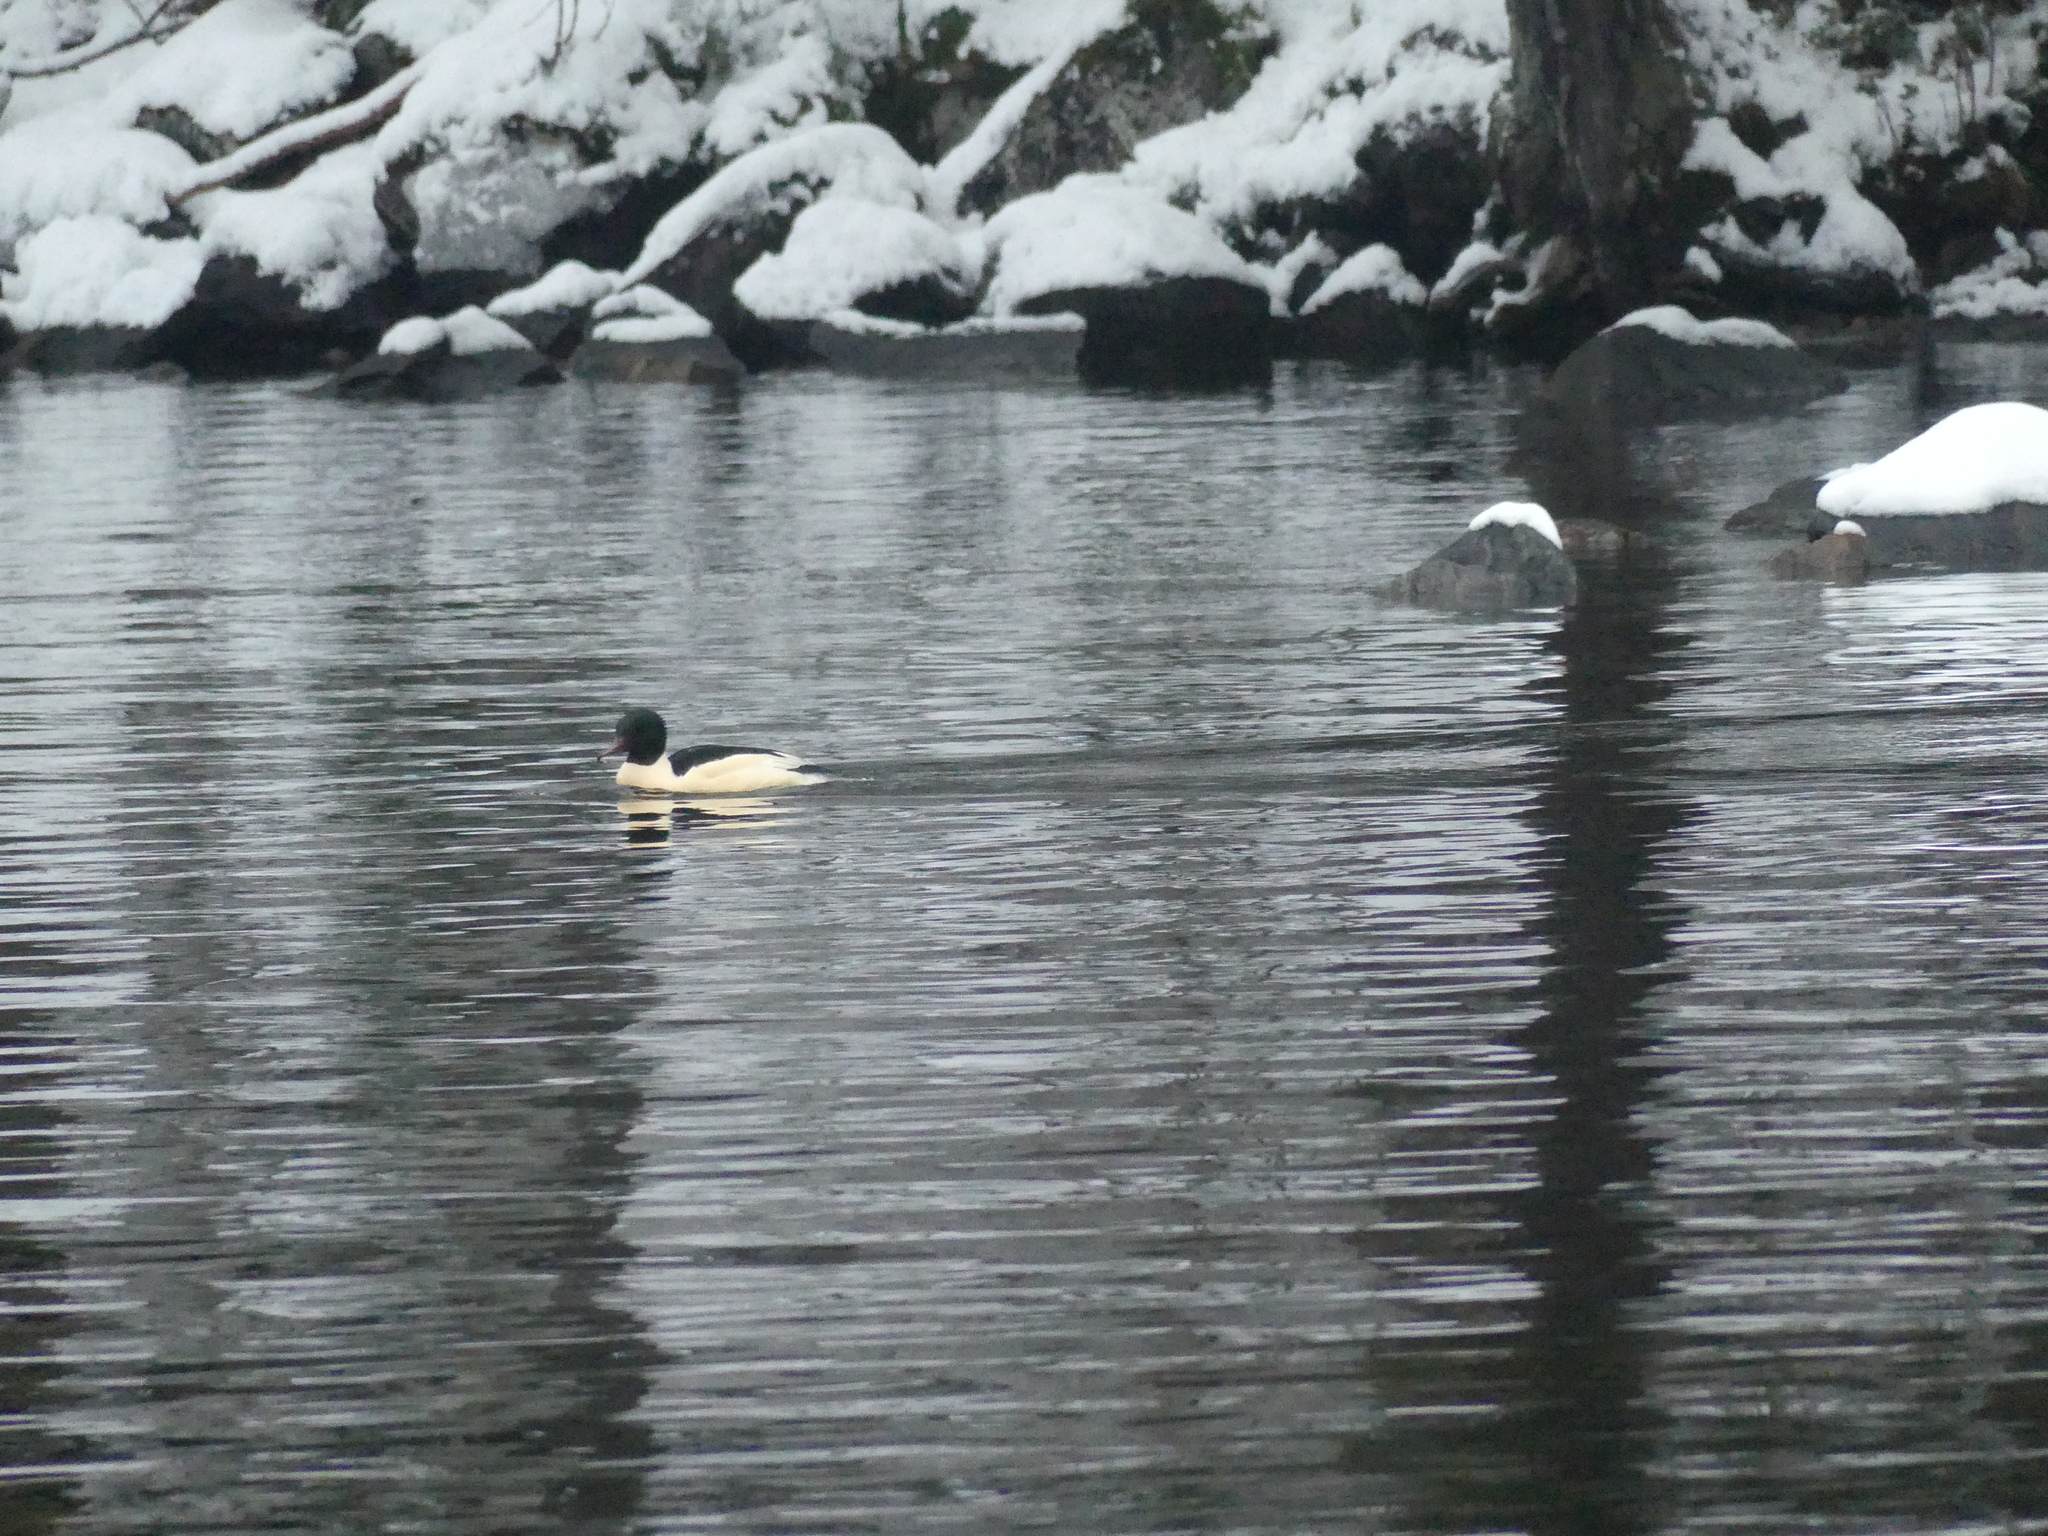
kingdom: Animalia
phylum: Chordata
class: Aves
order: Anseriformes
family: Anatidae
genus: Mergus
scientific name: Mergus merganser
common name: Common merganser
